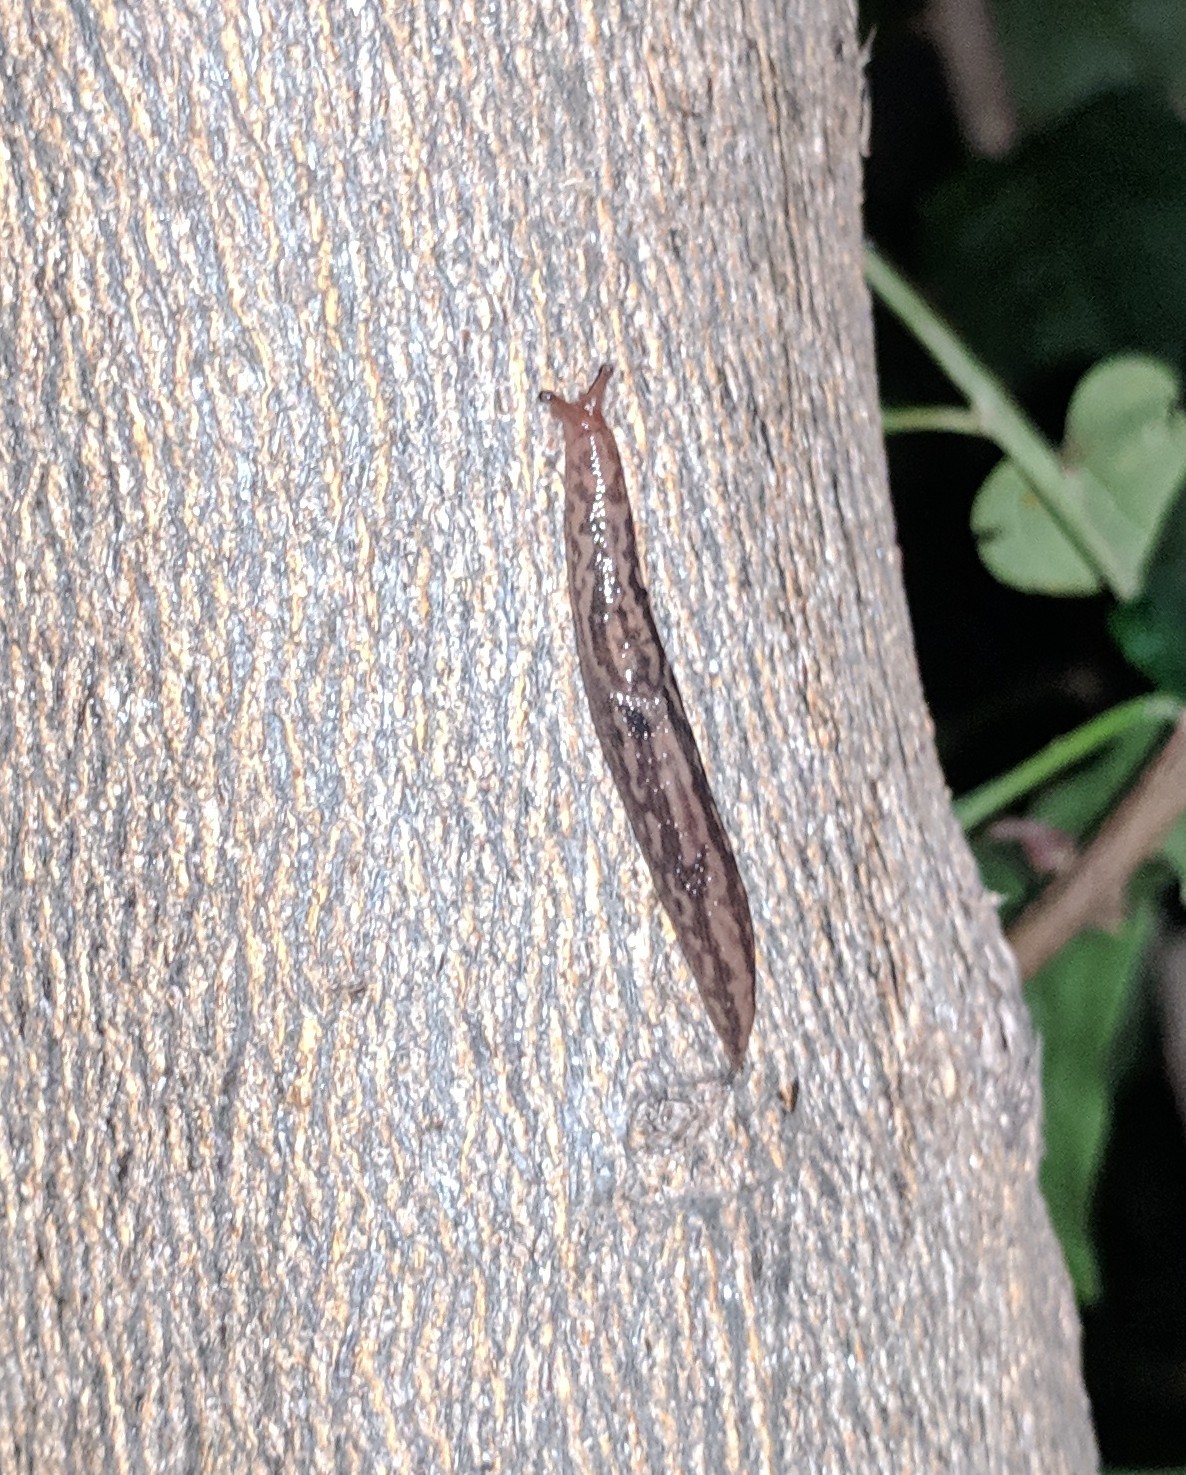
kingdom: Animalia
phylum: Mollusca
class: Gastropoda
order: Stylommatophora
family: Limacidae
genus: Ambigolimax
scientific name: Ambigolimax
